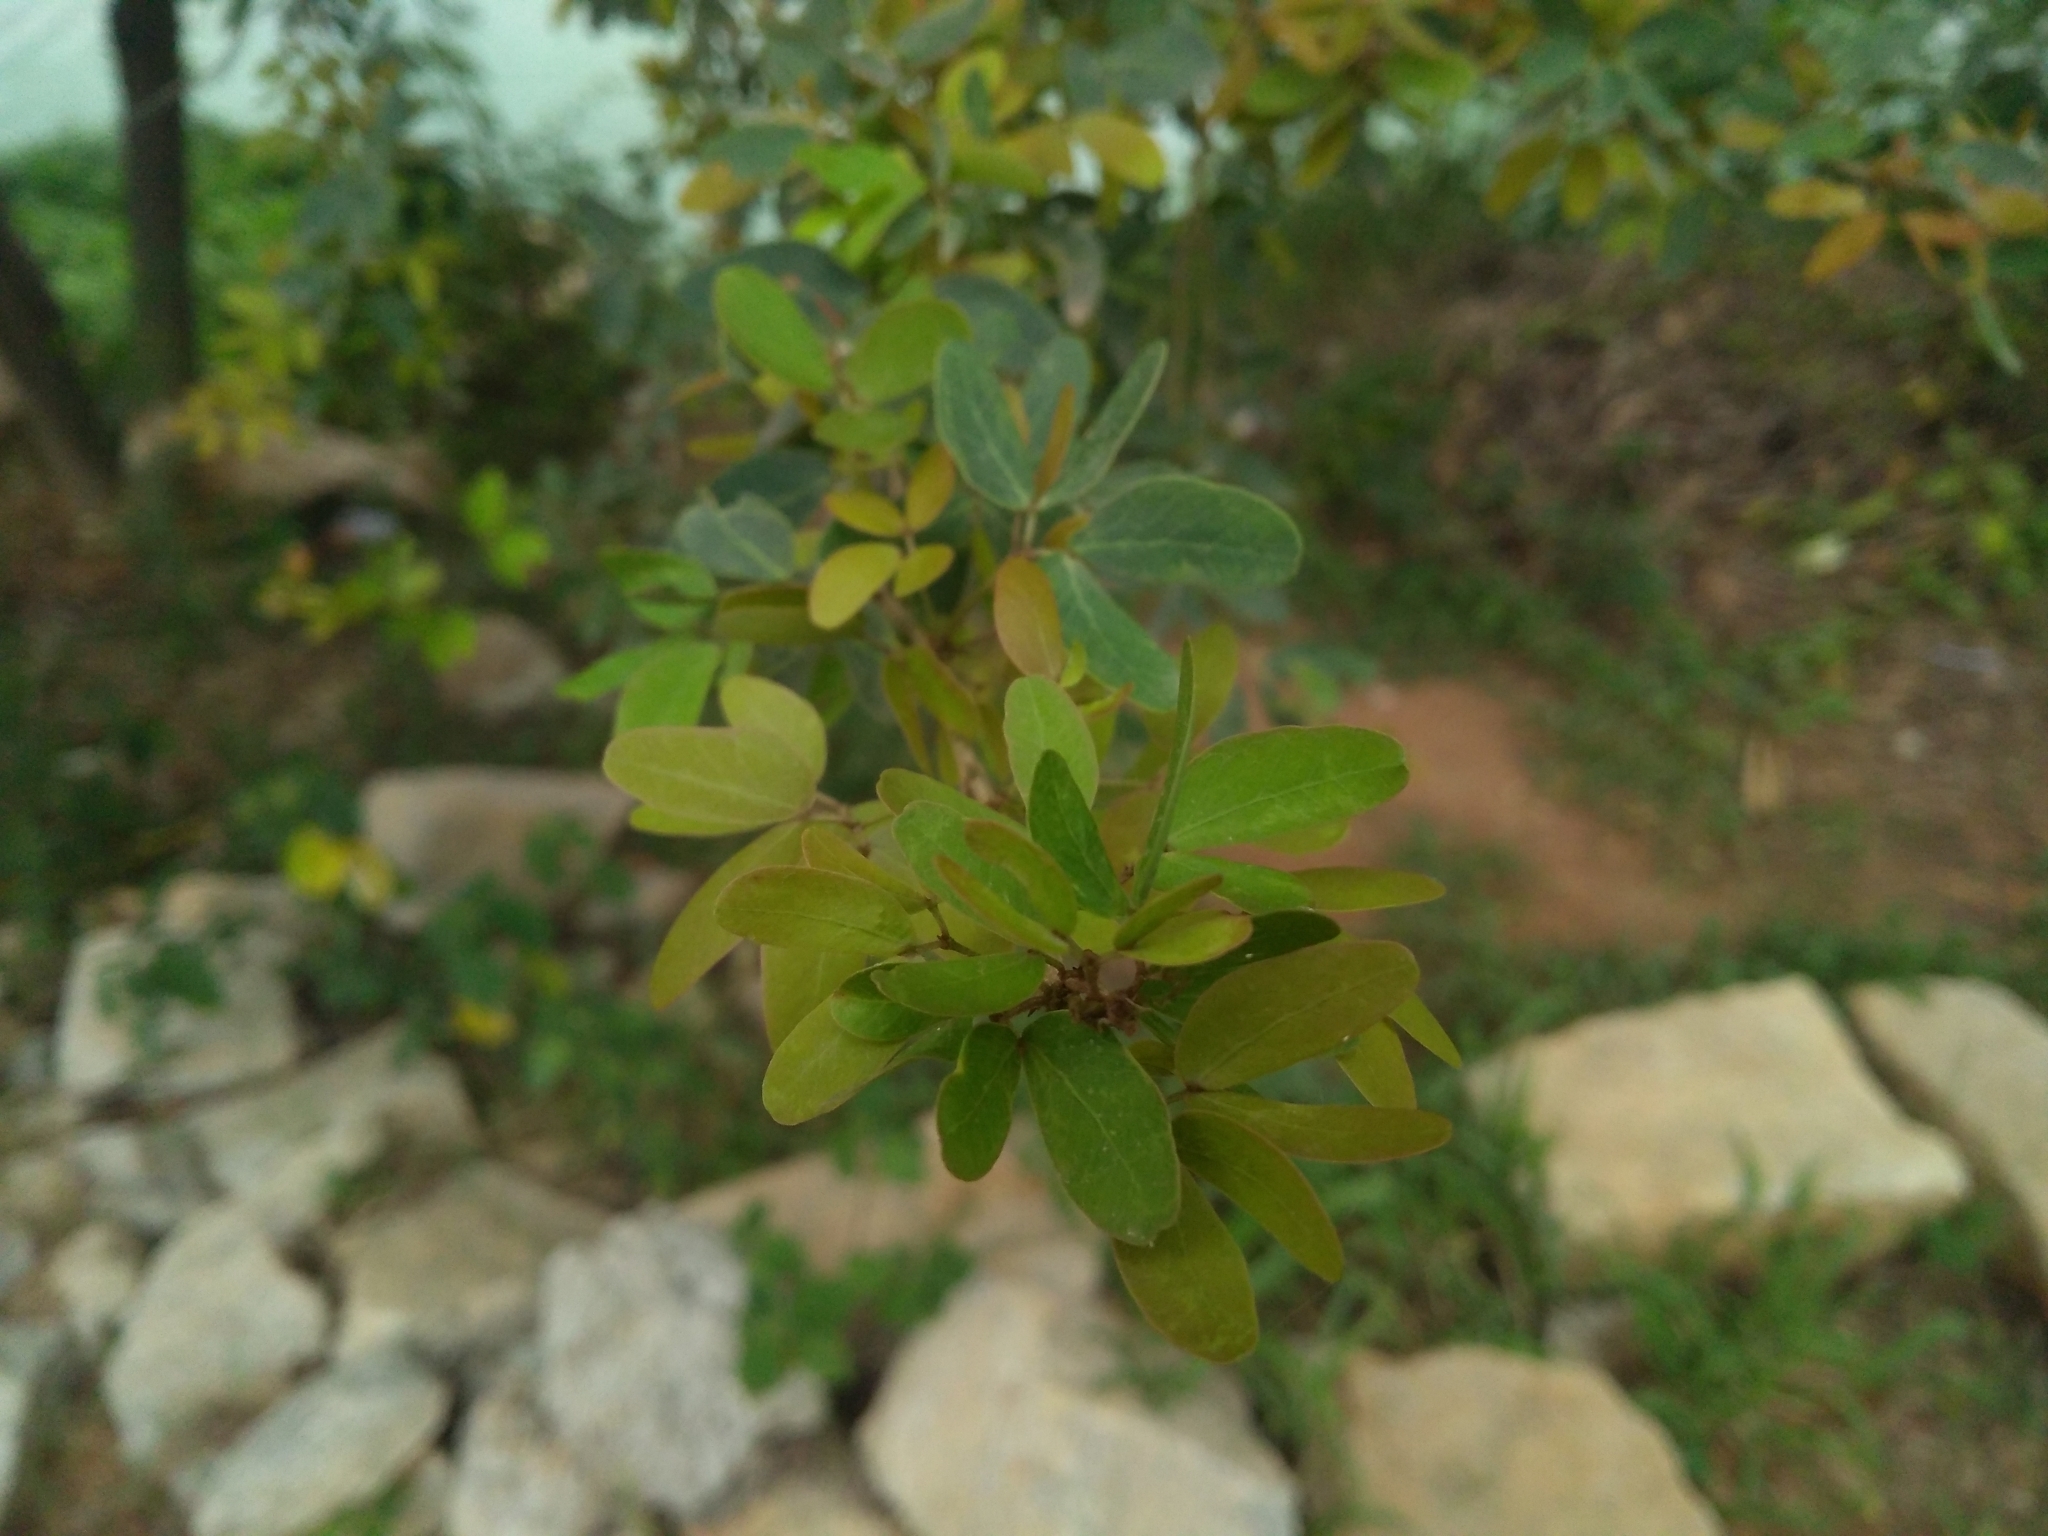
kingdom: Plantae
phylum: Tracheophyta
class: Magnoliopsida
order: Fabales
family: Fabaceae
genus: Pithecellobium
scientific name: Pithecellobium dulce
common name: Monkeypod
